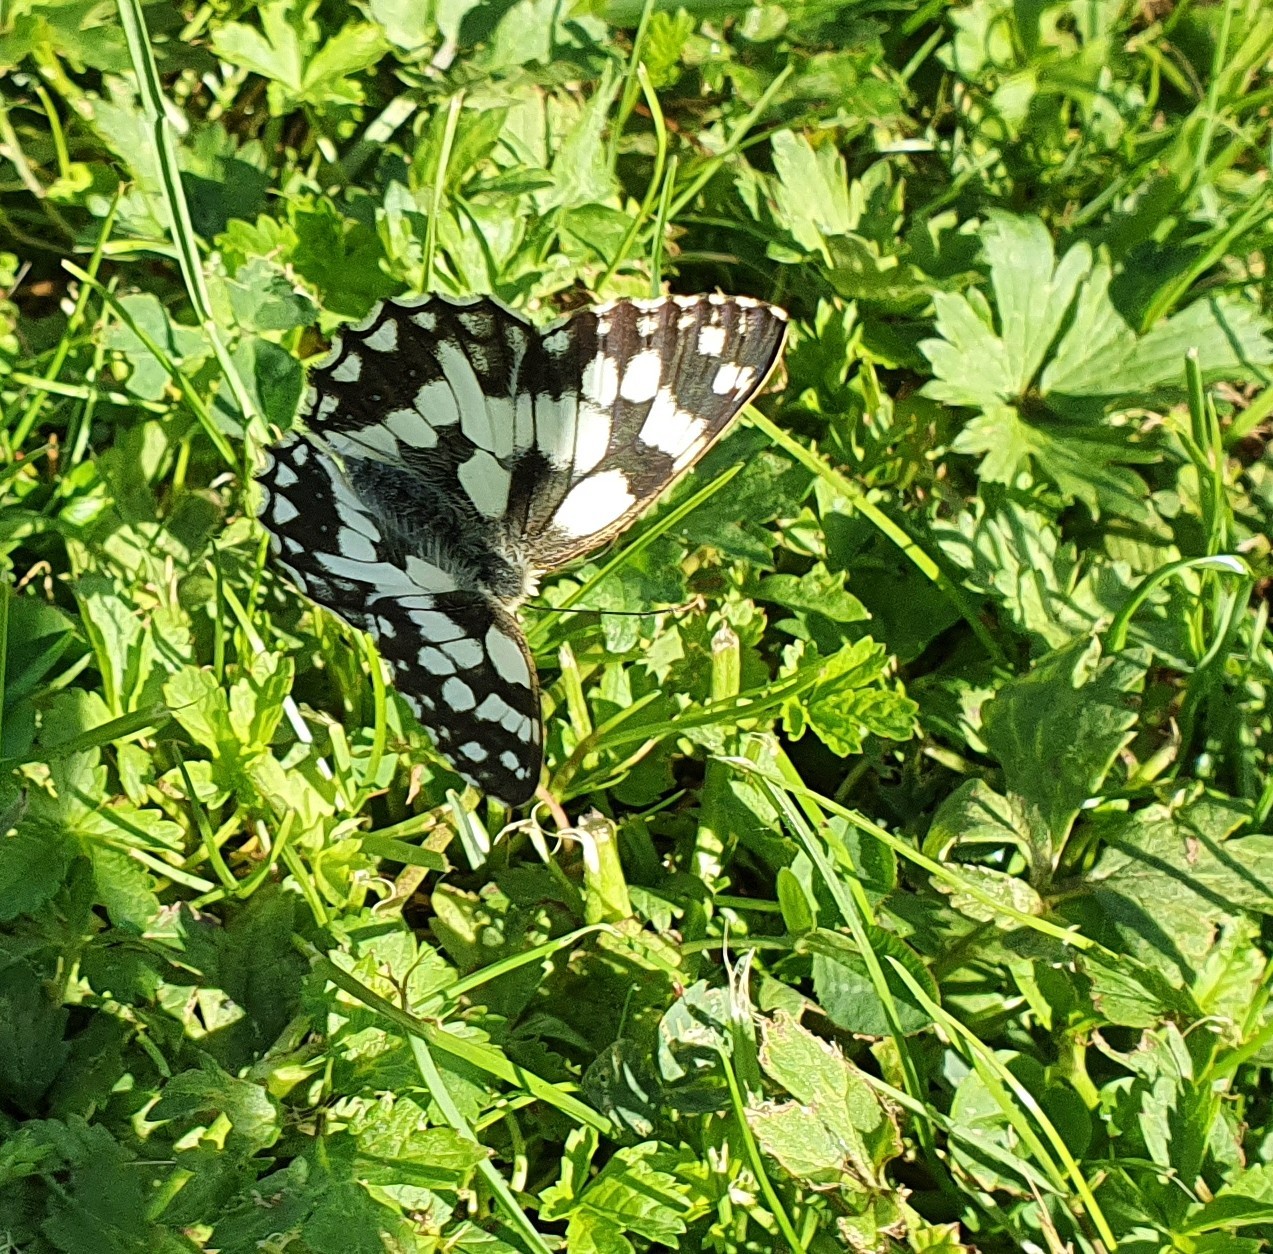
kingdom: Animalia
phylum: Arthropoda
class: Insecta
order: Lepidoptera
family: Nymphalidae
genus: Melanargia
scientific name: Melanargia galathea
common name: Marbled white
